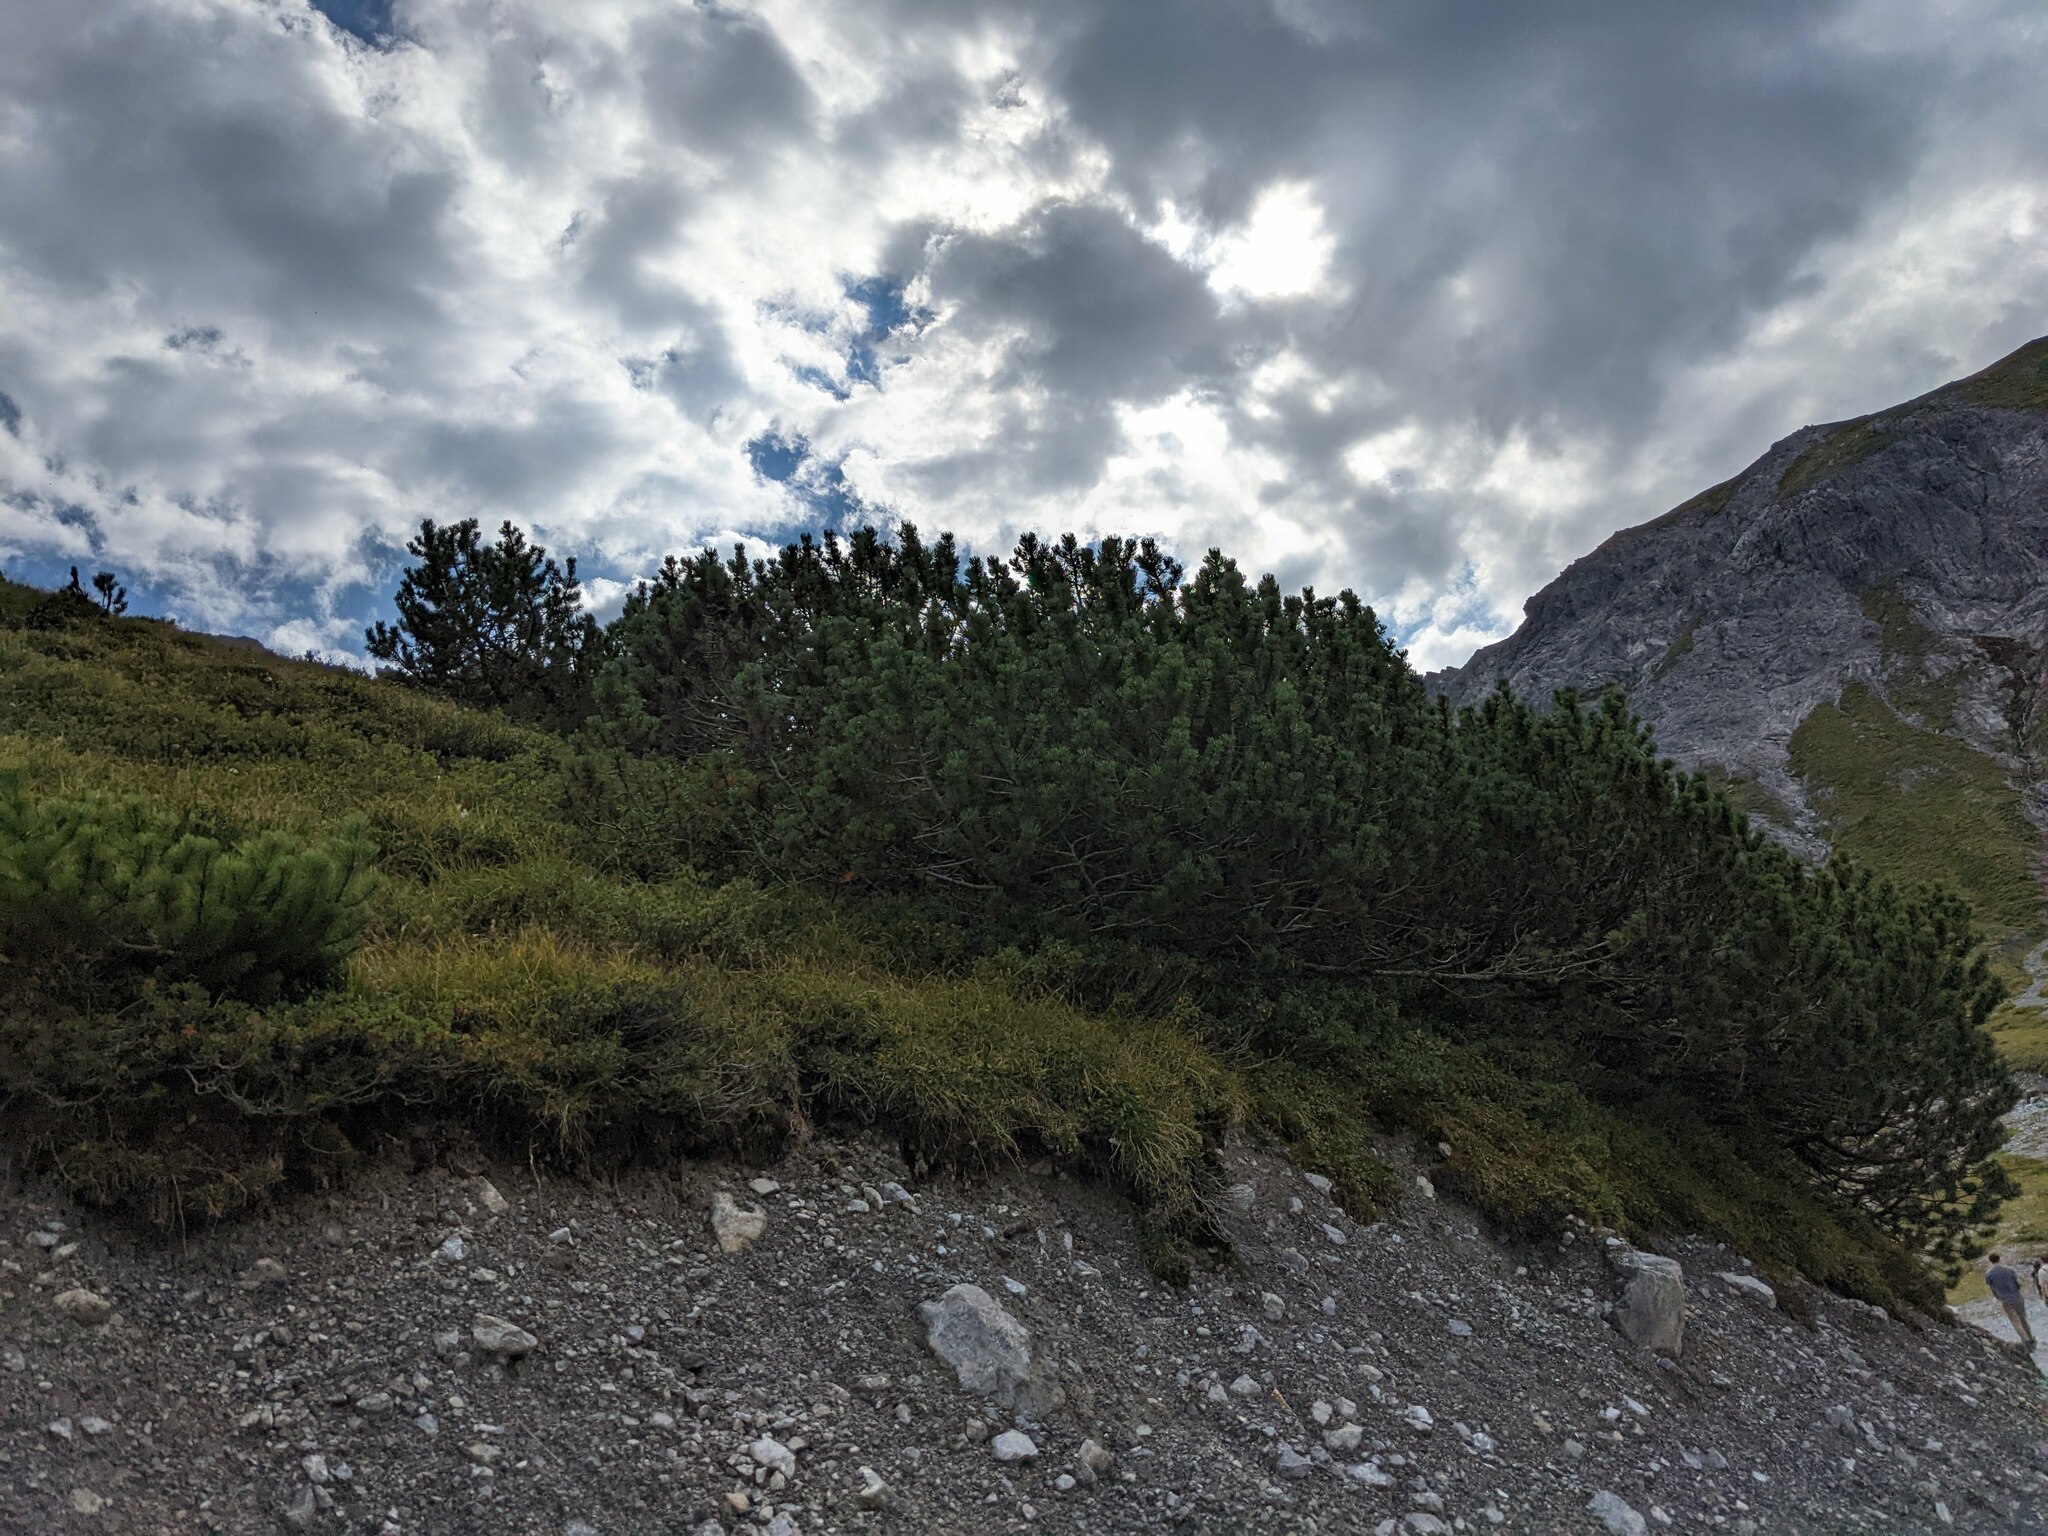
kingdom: Plantae
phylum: Tracheophyta
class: Pinopsida
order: Pinales
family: Pinaceae
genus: Pinus
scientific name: Pinus mugo
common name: Mugo pine
